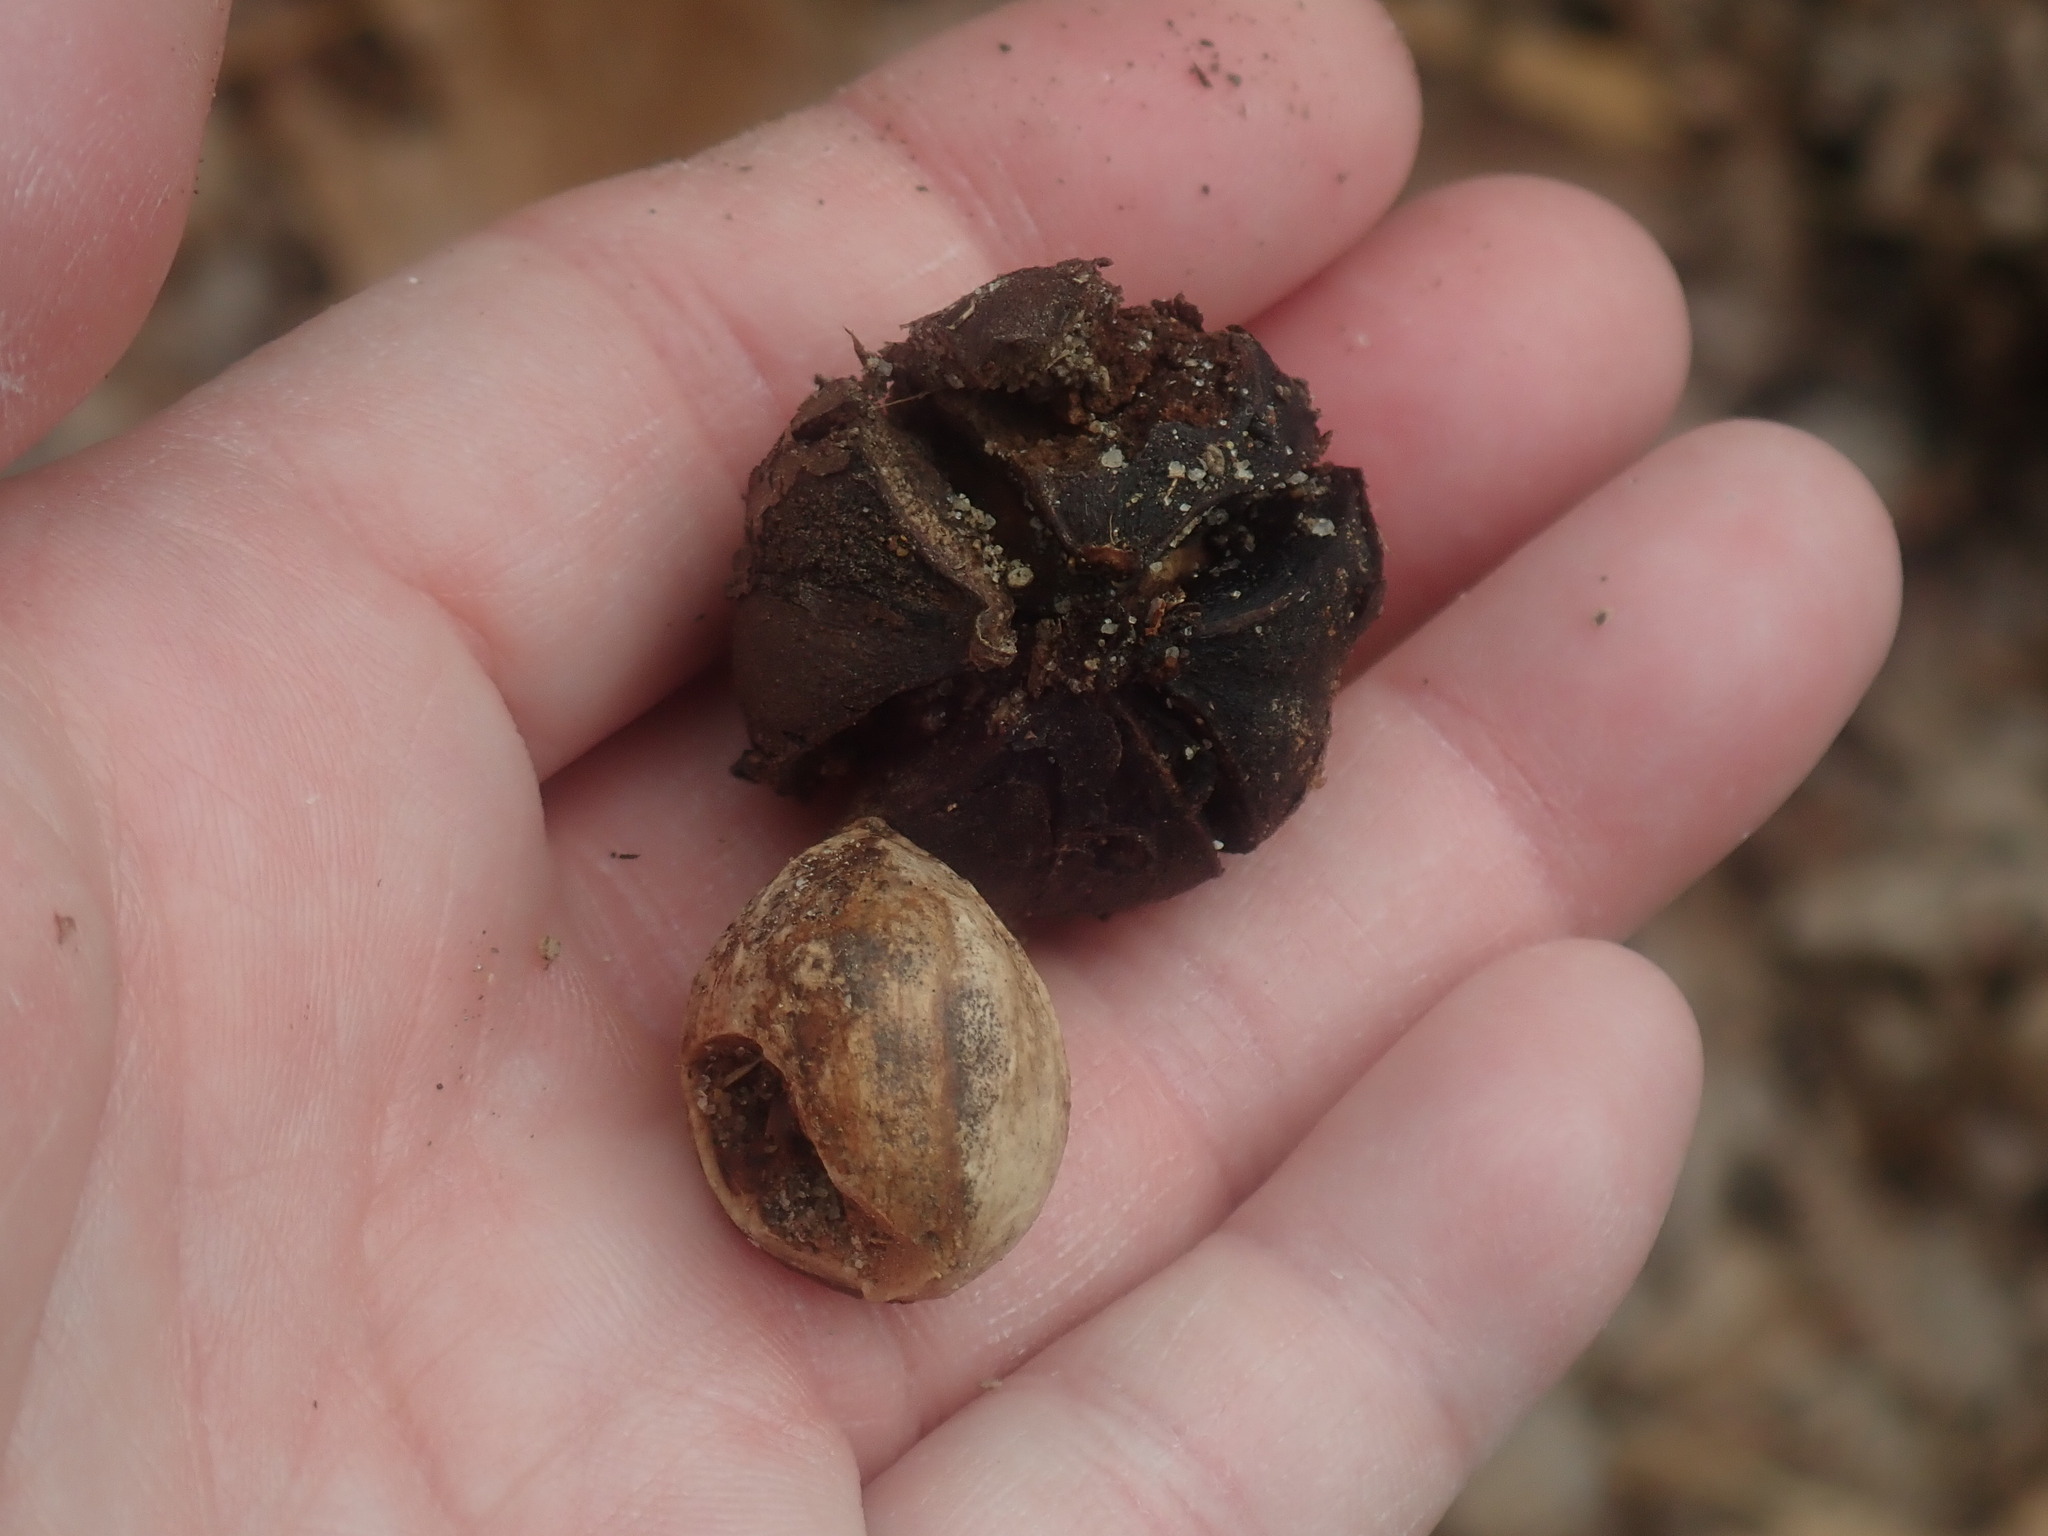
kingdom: Plantae
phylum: Tracheophyta
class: Magnoliopsida
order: Fagales
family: Juglandaceae
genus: Carya
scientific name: Carya ovata
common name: Shagbark hickory
